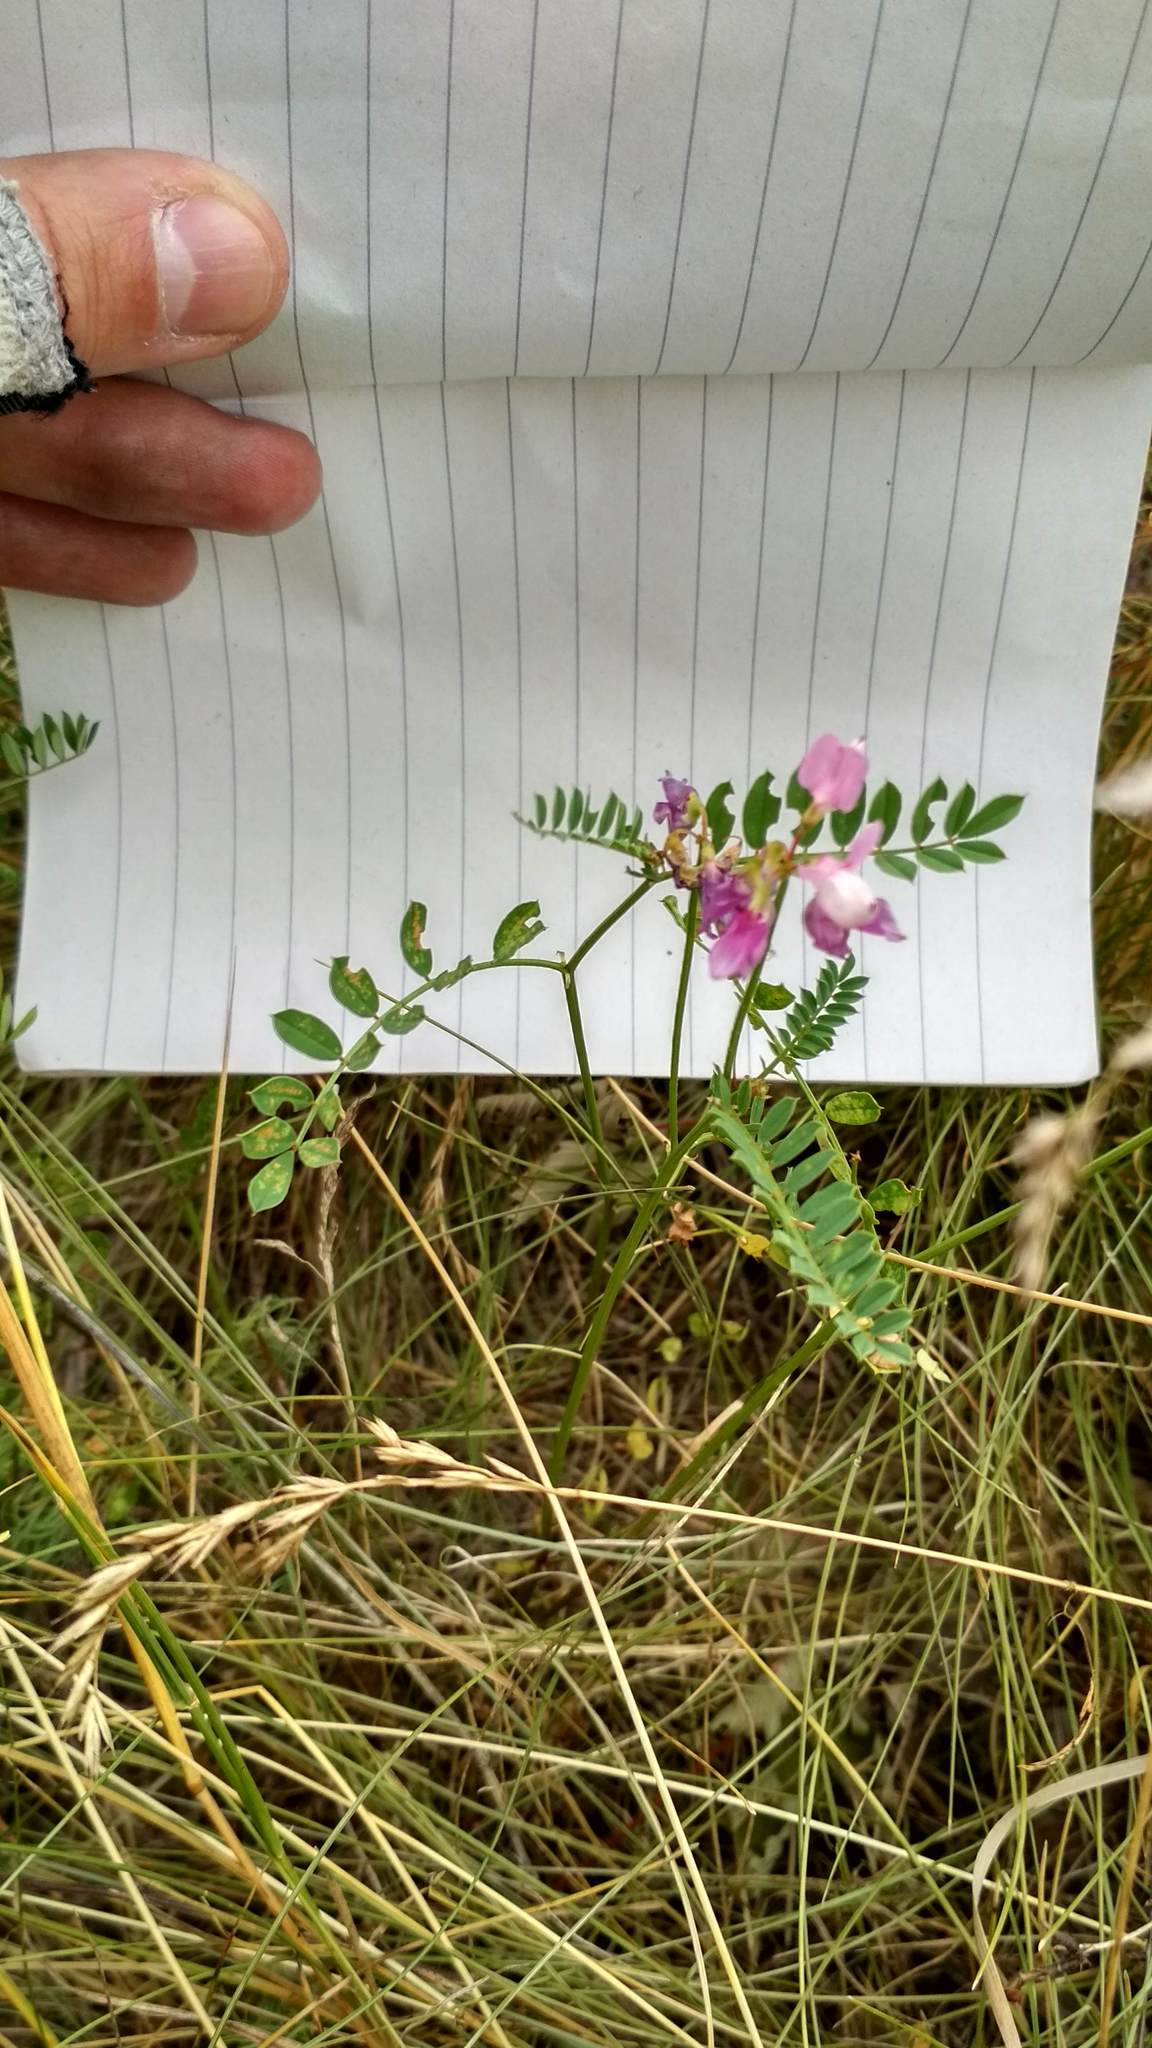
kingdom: Plantae
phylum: Tracheophyta
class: Magnoliopsida
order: Fabales
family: Fabaceae
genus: Coronilla
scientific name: Coronilla varia
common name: Crownvetch
